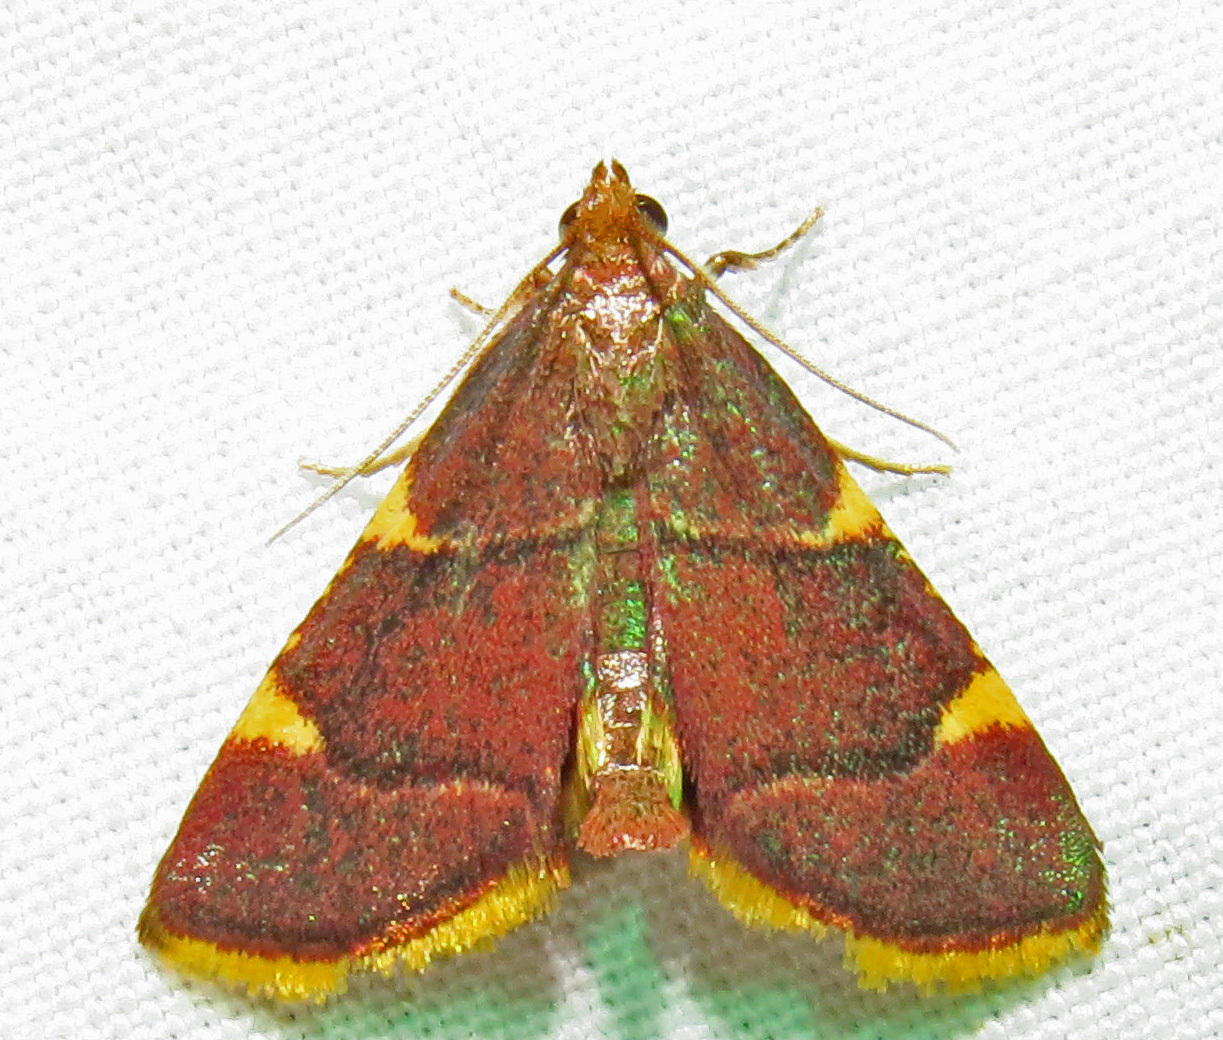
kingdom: Animalia
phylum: Arthropoda
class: Insecta
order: Lepidoptera
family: Pyralidae
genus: Hypsopygia
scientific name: Hypsopygia olinalis
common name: Yellow-fringed dolichomia moth
